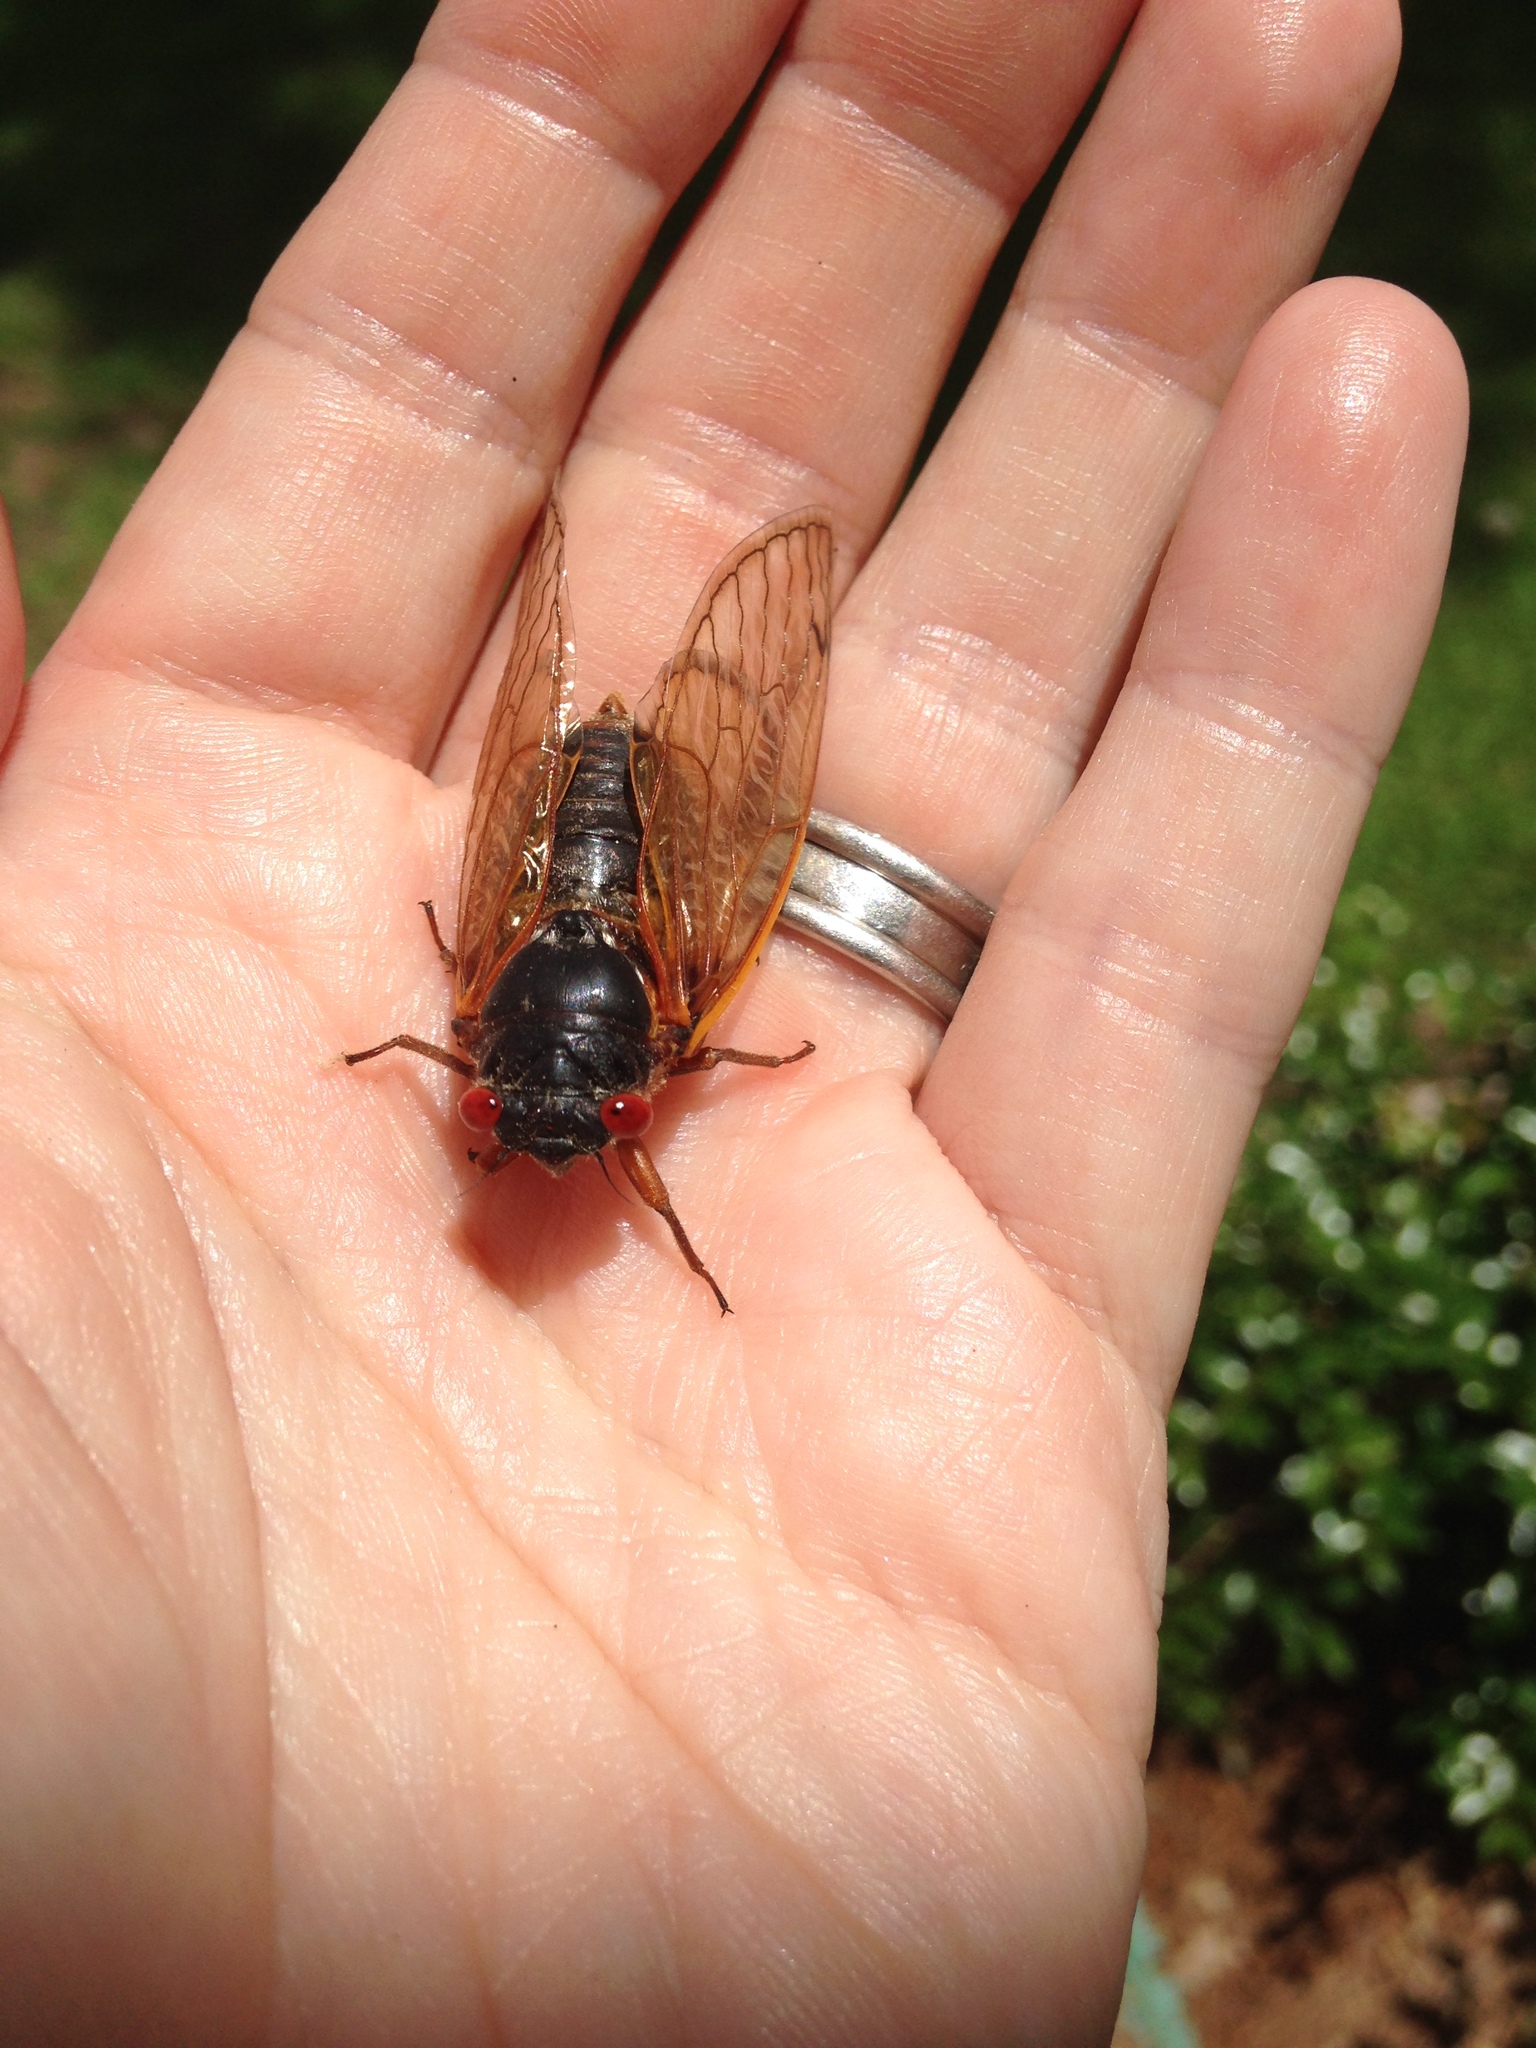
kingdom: Animalia
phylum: Arthropoda
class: Insecta
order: Hemiptera
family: Cicadidae
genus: Magicicada
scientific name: Magicicada
